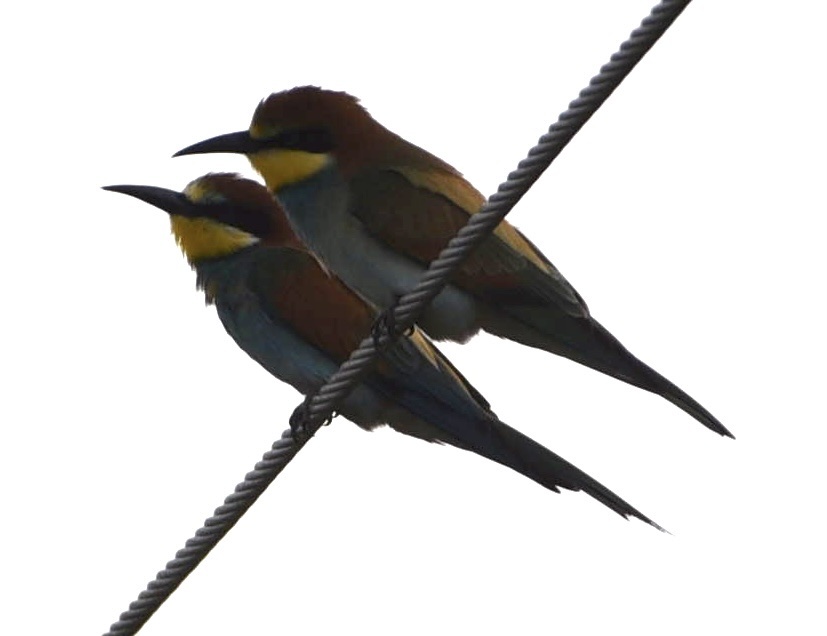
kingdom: Animalia
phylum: Chordata
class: Aves
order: Coraciiformes
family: Meropidae
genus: Merops
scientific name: Merops apiaster
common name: European bee-eater
